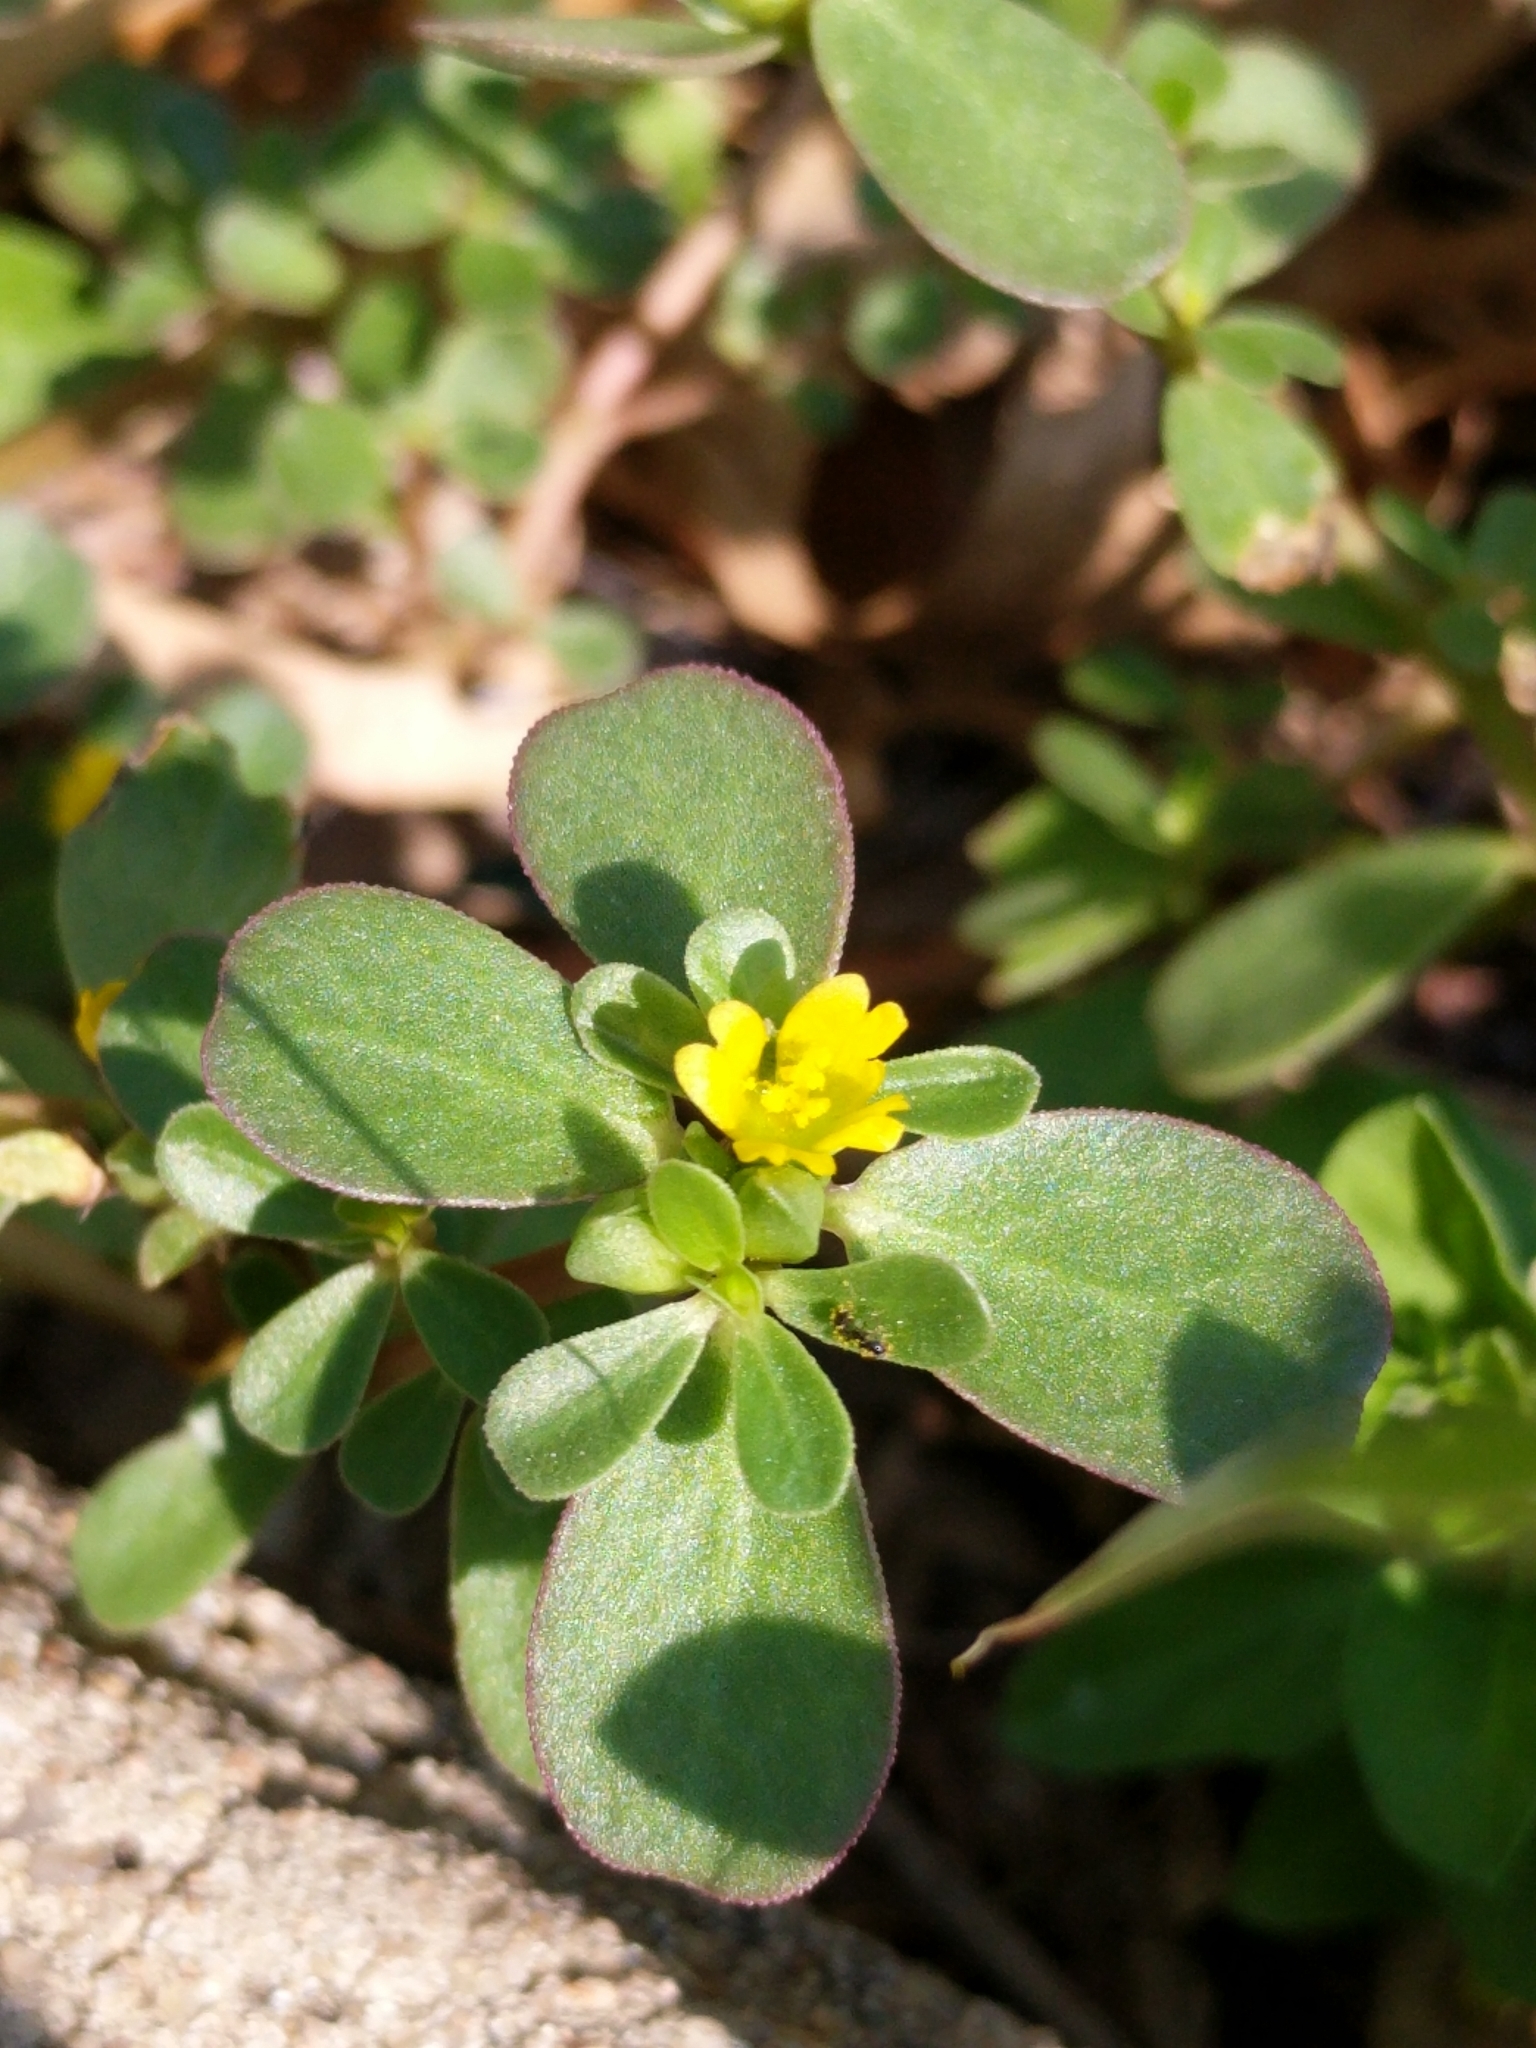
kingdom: Plantae
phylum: Tracheophyta
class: Magnoliopsida
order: Caryophyllales
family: Portulacaceae
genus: Portulaca
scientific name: Portulaca oleracea
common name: Common purslane
